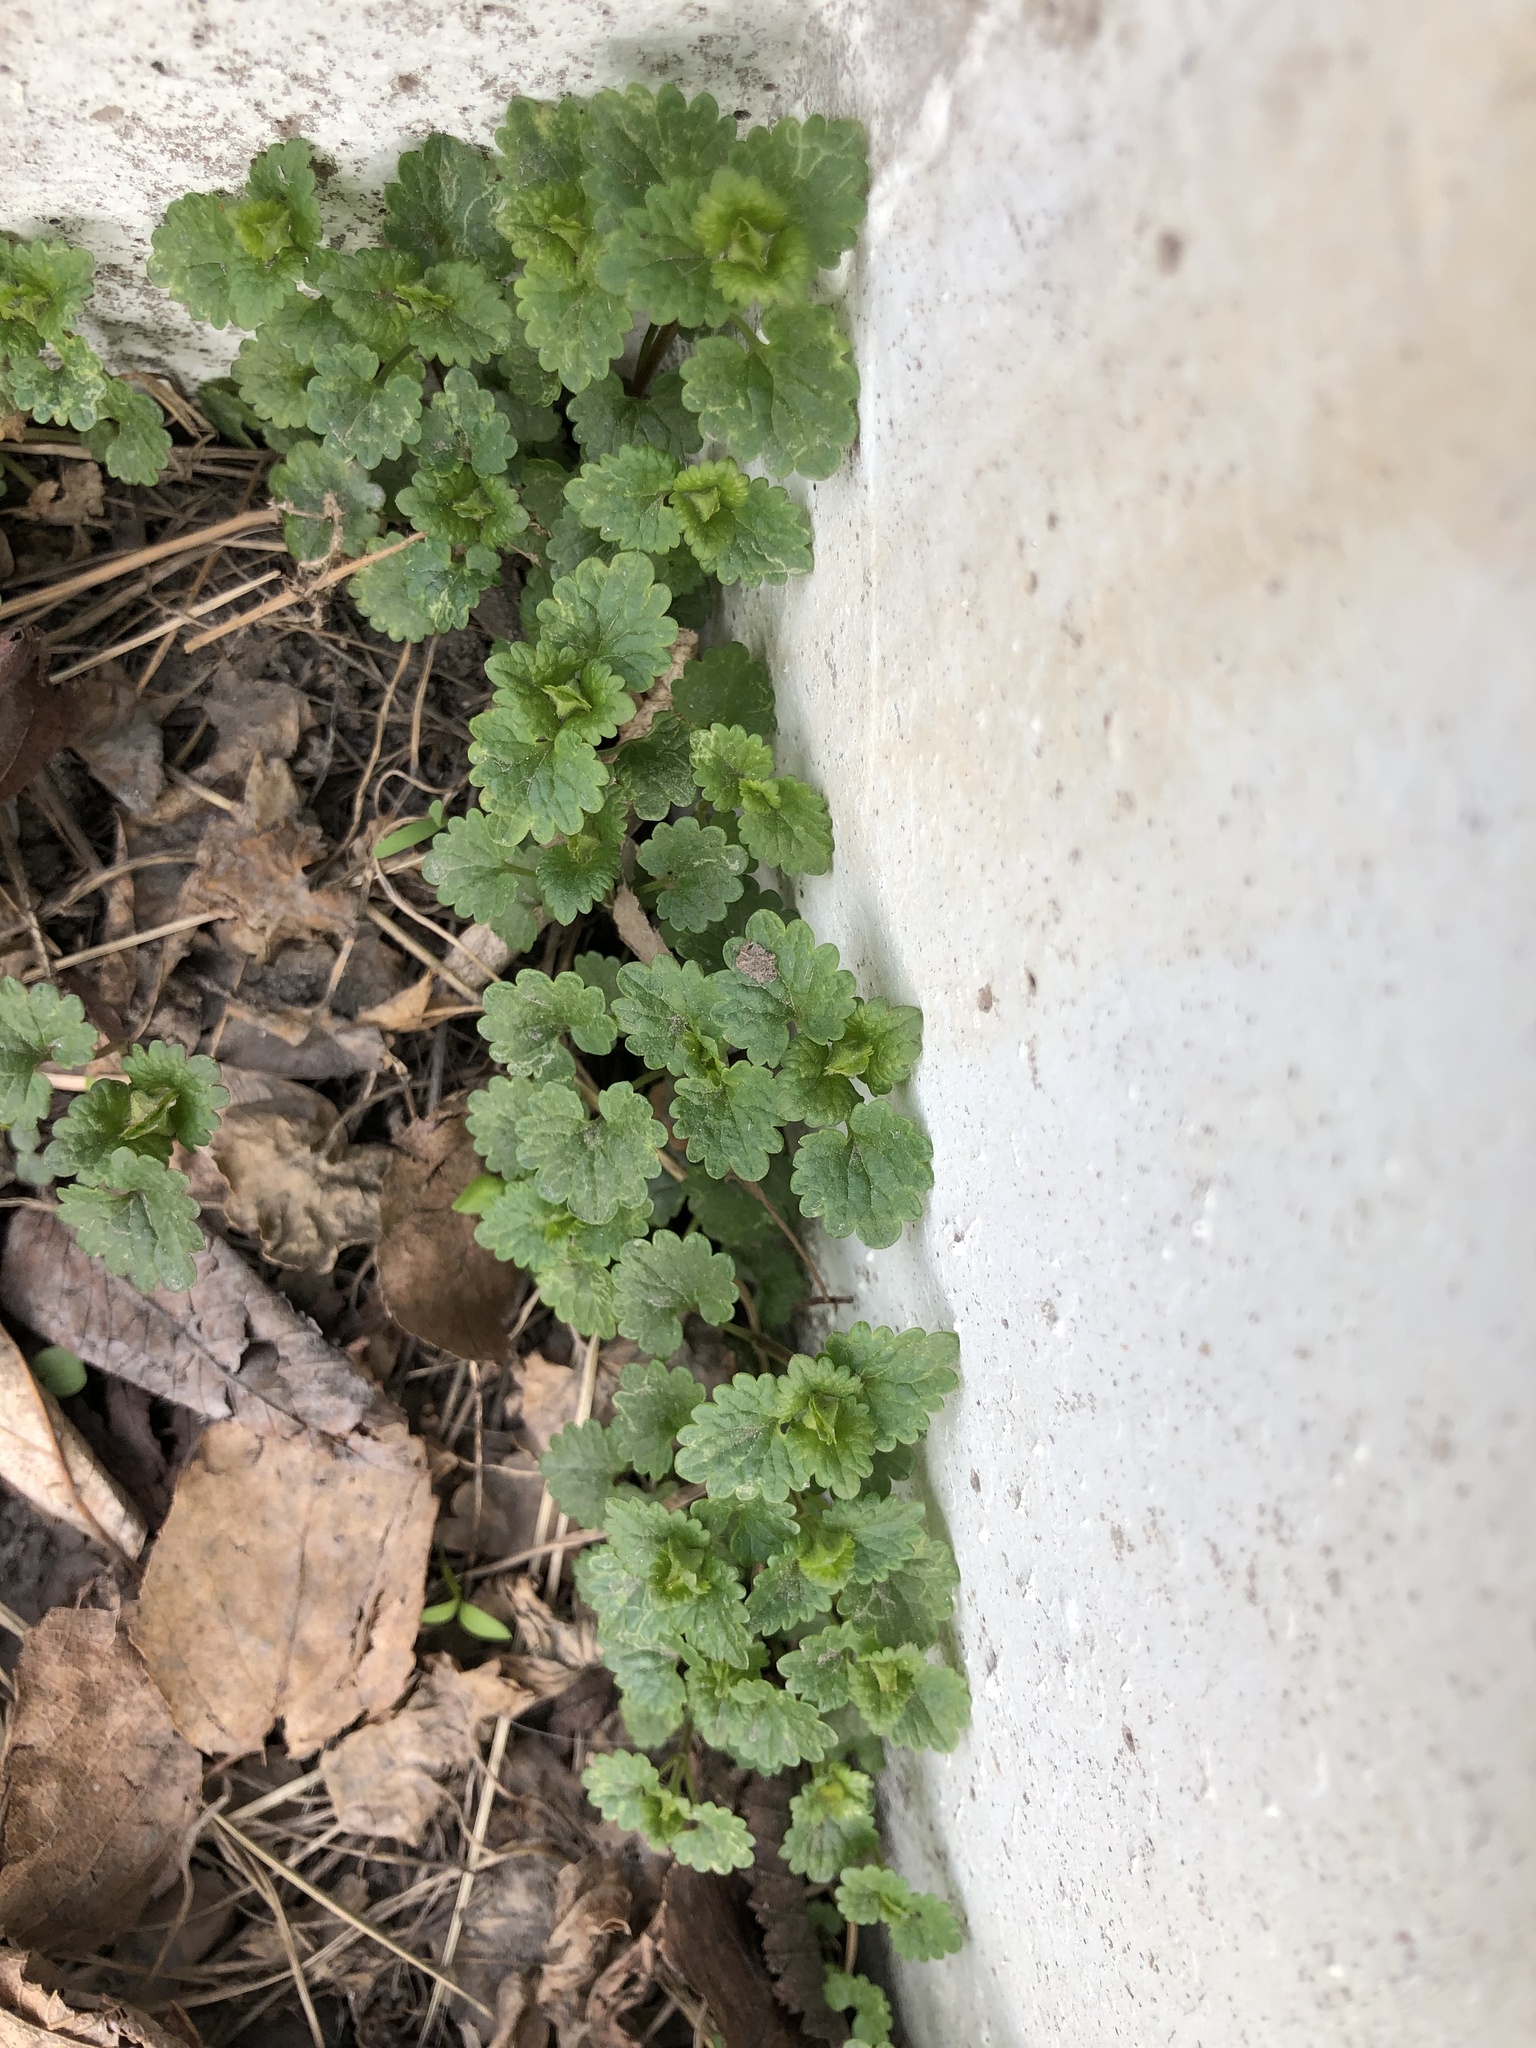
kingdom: Plantae
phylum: Tracheophyta
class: Magnoliopsida
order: Lamiales
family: Lamiaceae
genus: Glechoma
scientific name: Glechoma hederacea
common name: Ground ivy
